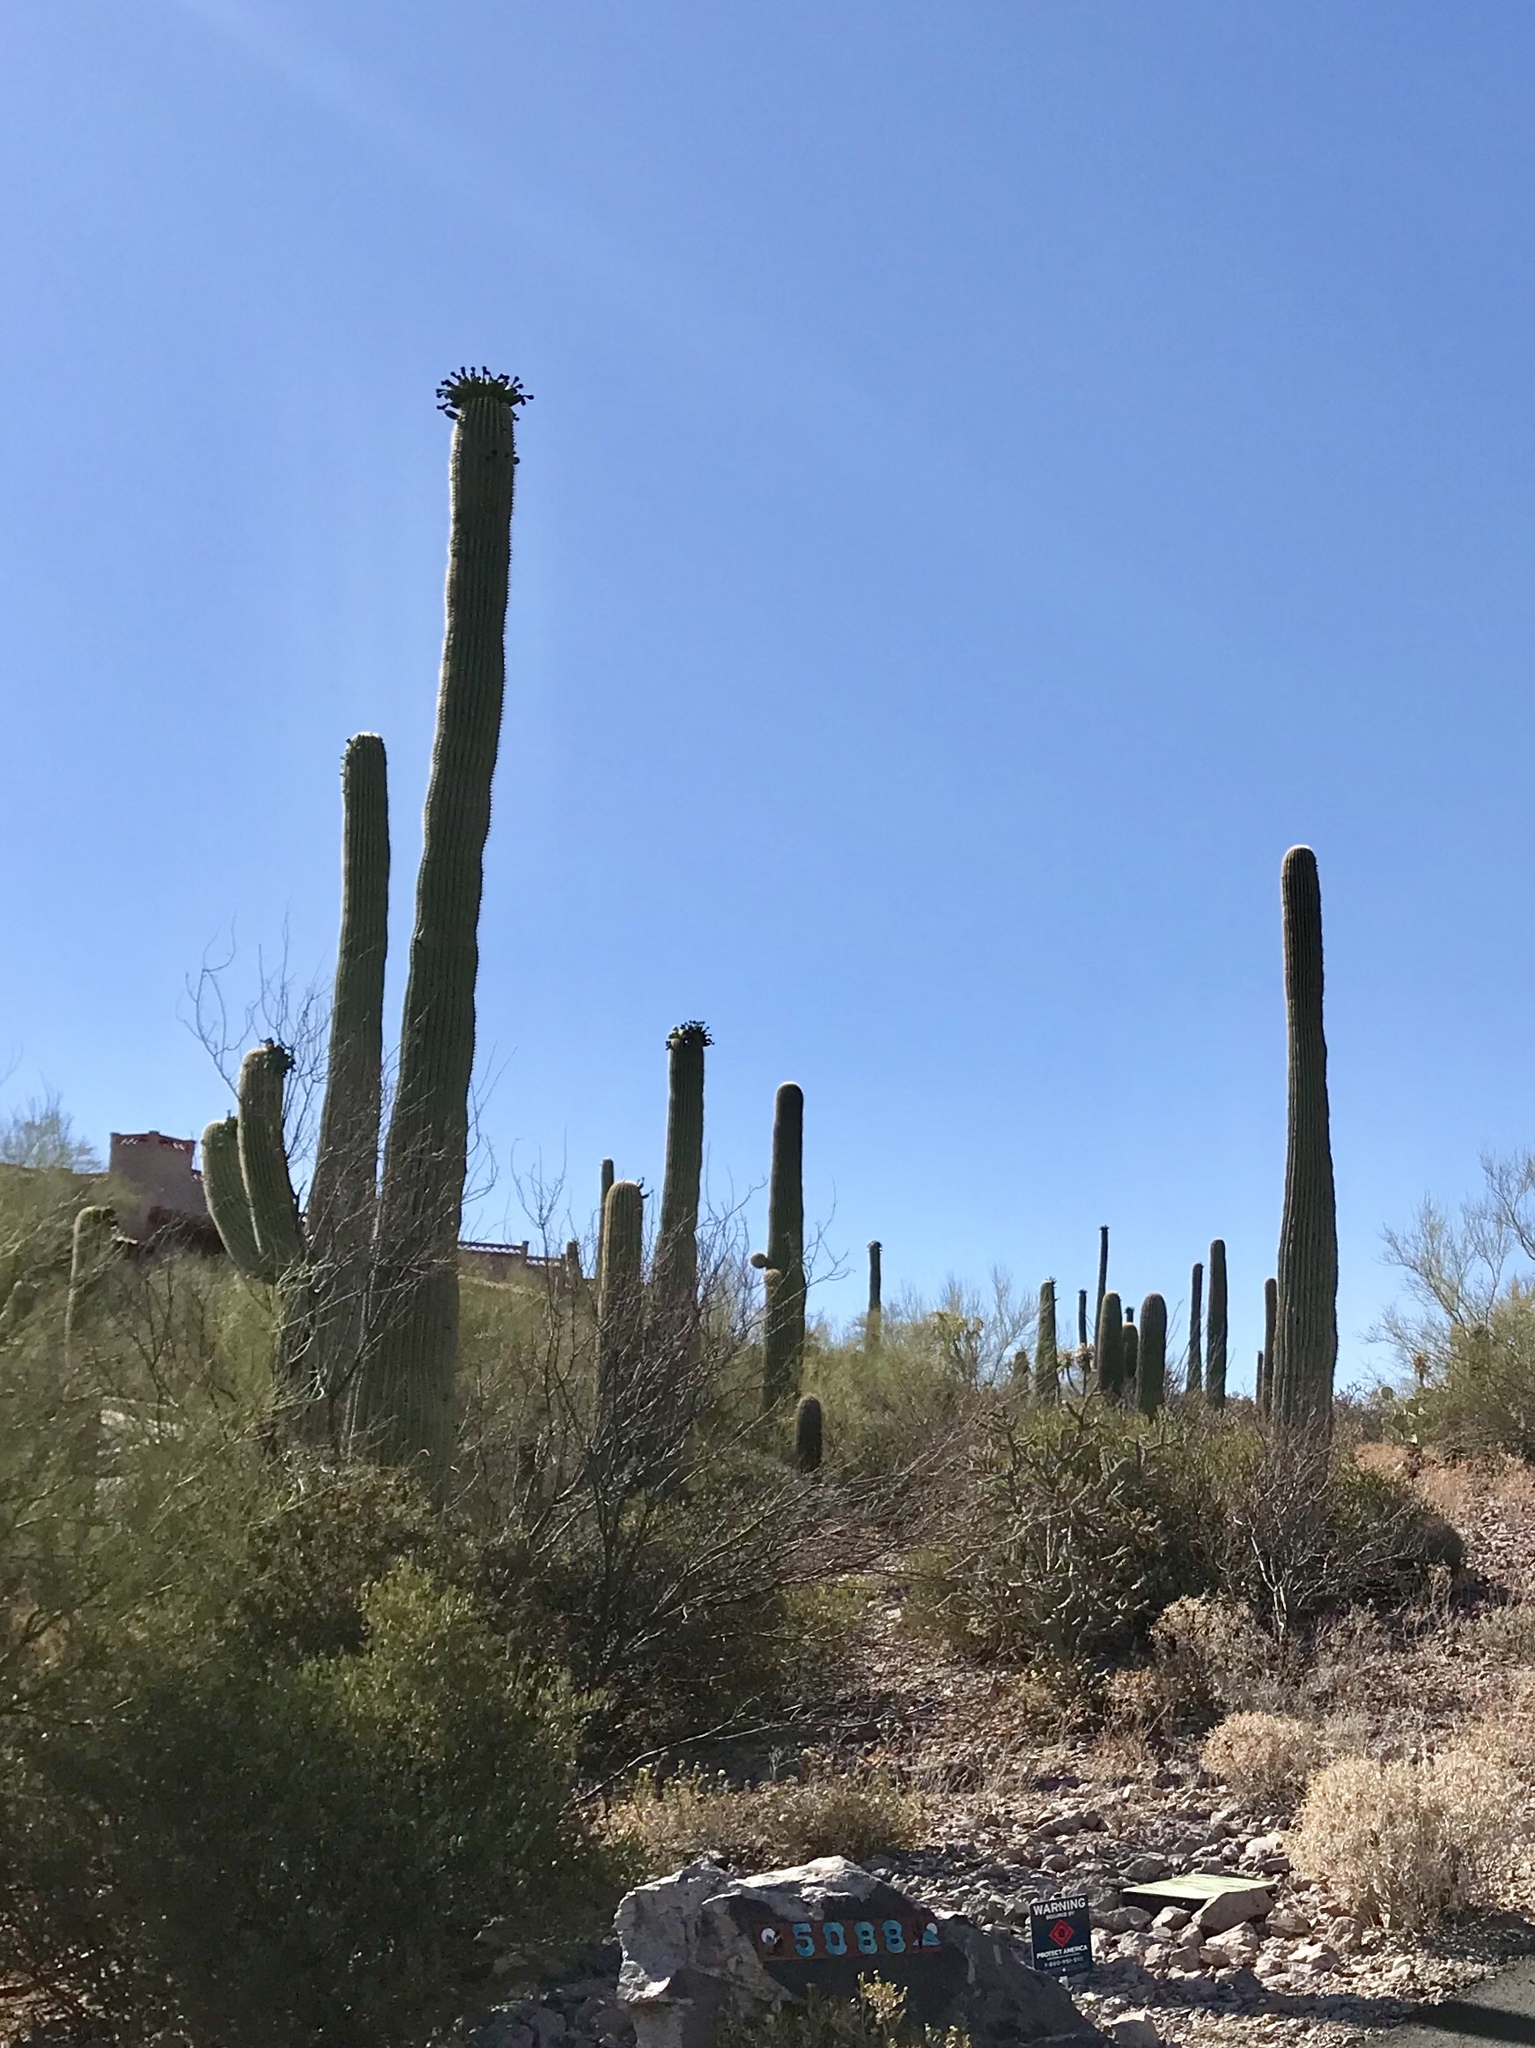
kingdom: Plantae
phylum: Tracheophyta
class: Magnoliopsida
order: Caryophyllales
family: Cactaceae
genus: Carnegiea
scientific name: Carnegiea gigantea
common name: Saguaro
